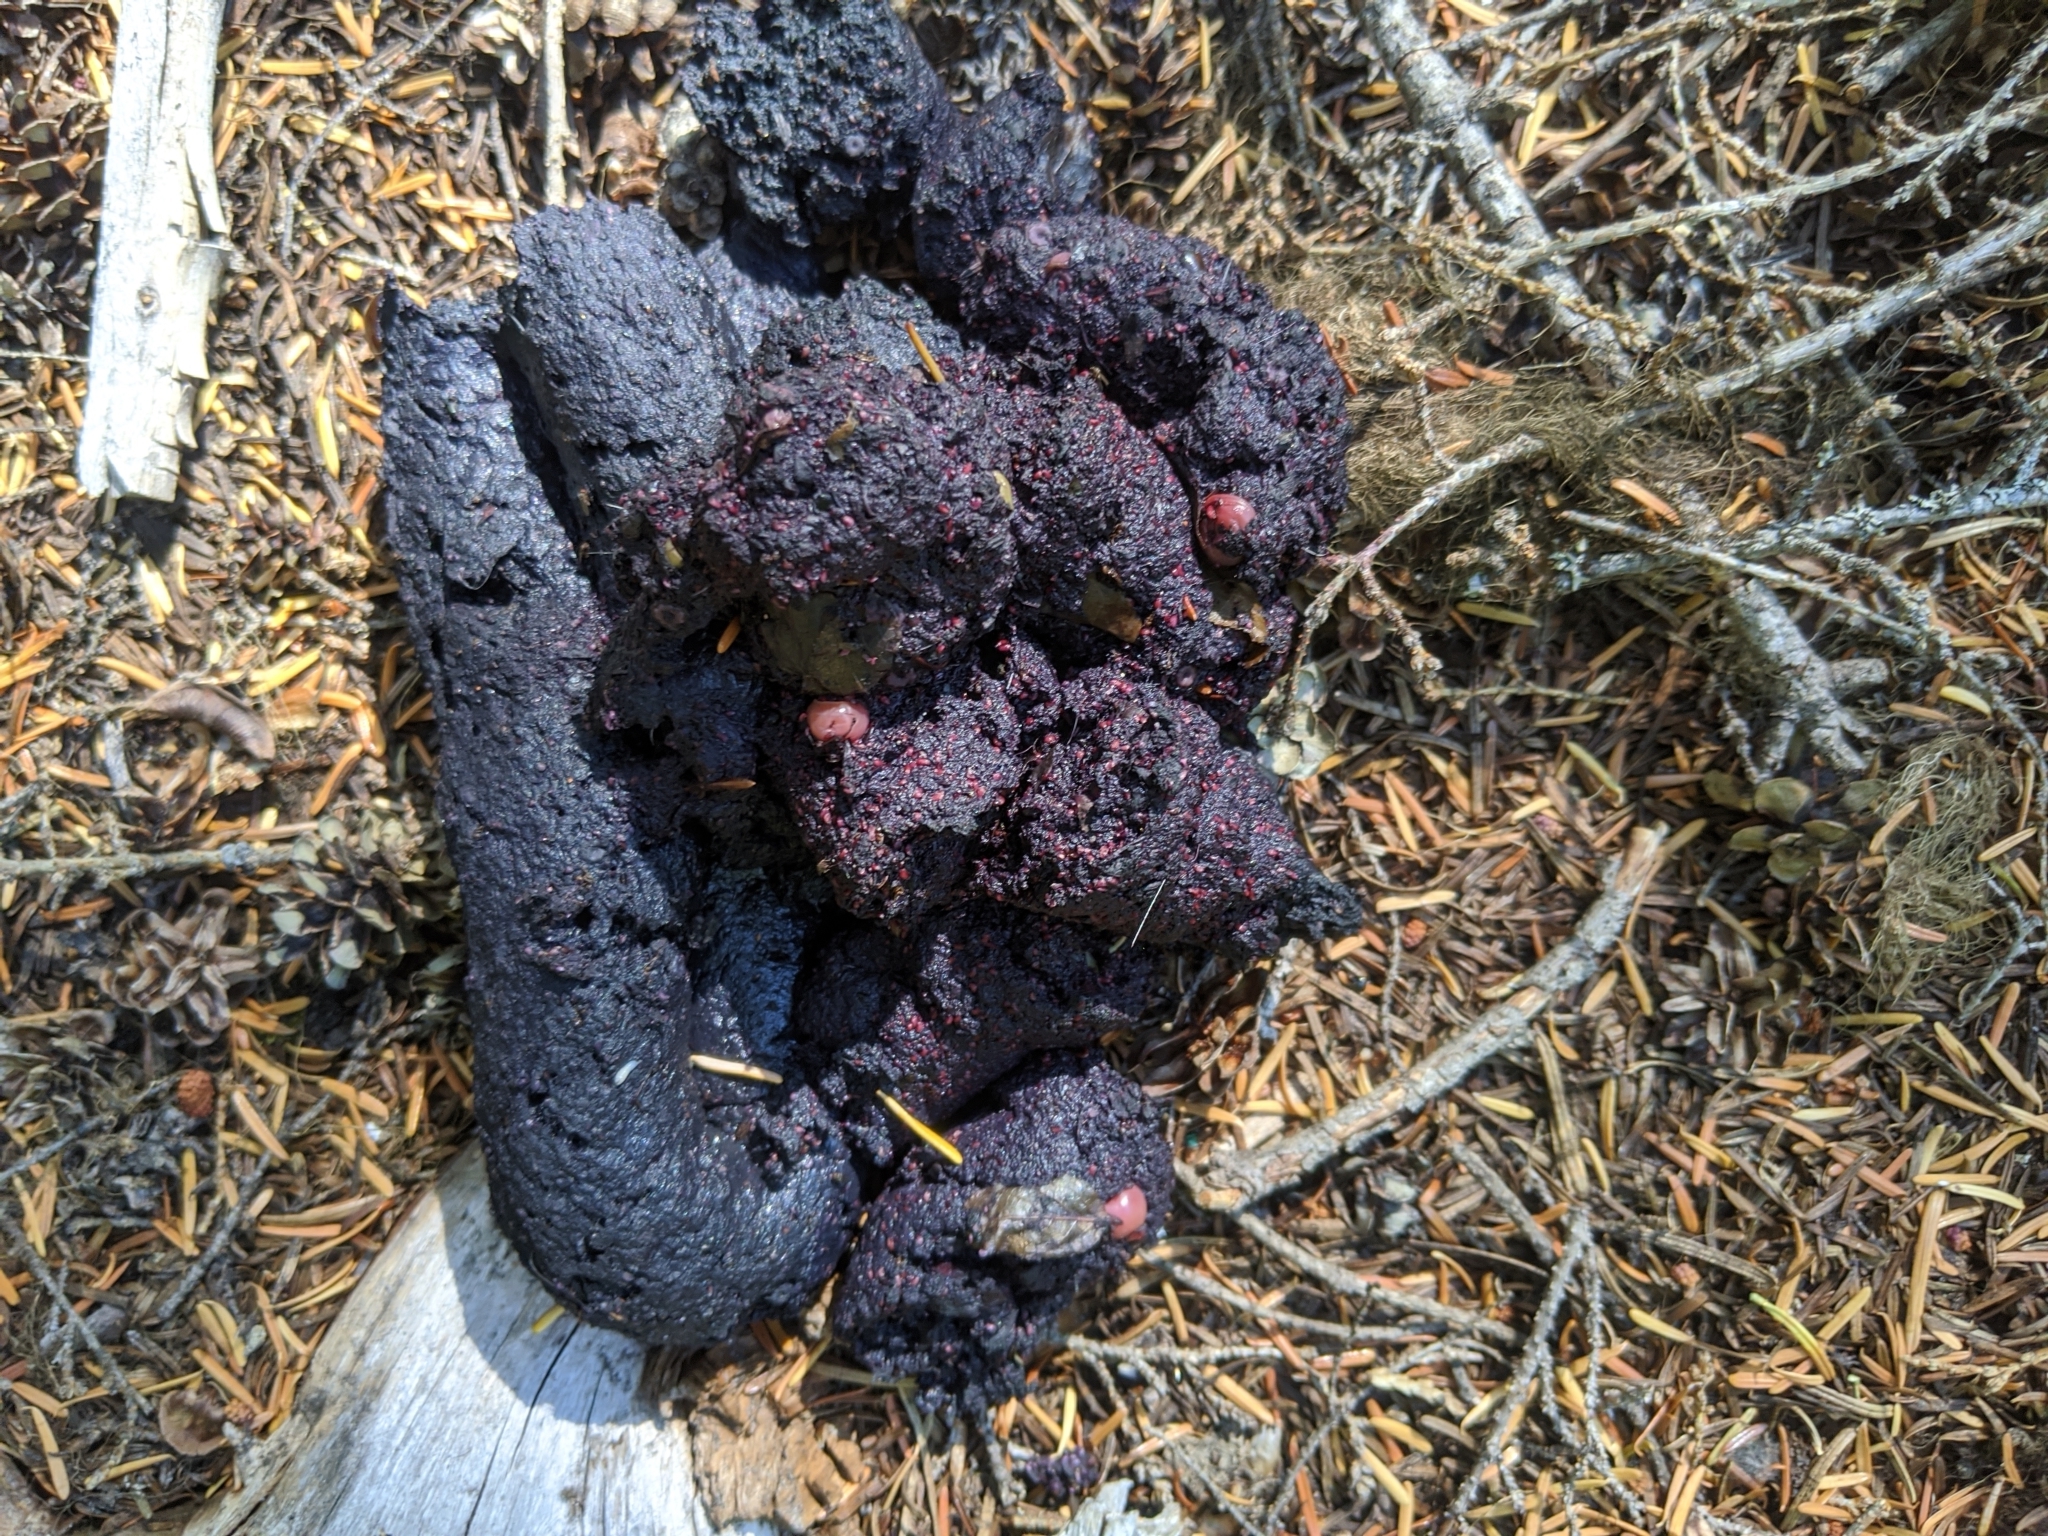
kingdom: Animalia
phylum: Chordata
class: Mammalia
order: Carnivora
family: Ursidae
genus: Ursus
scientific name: Ursus americanus
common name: American black bear
